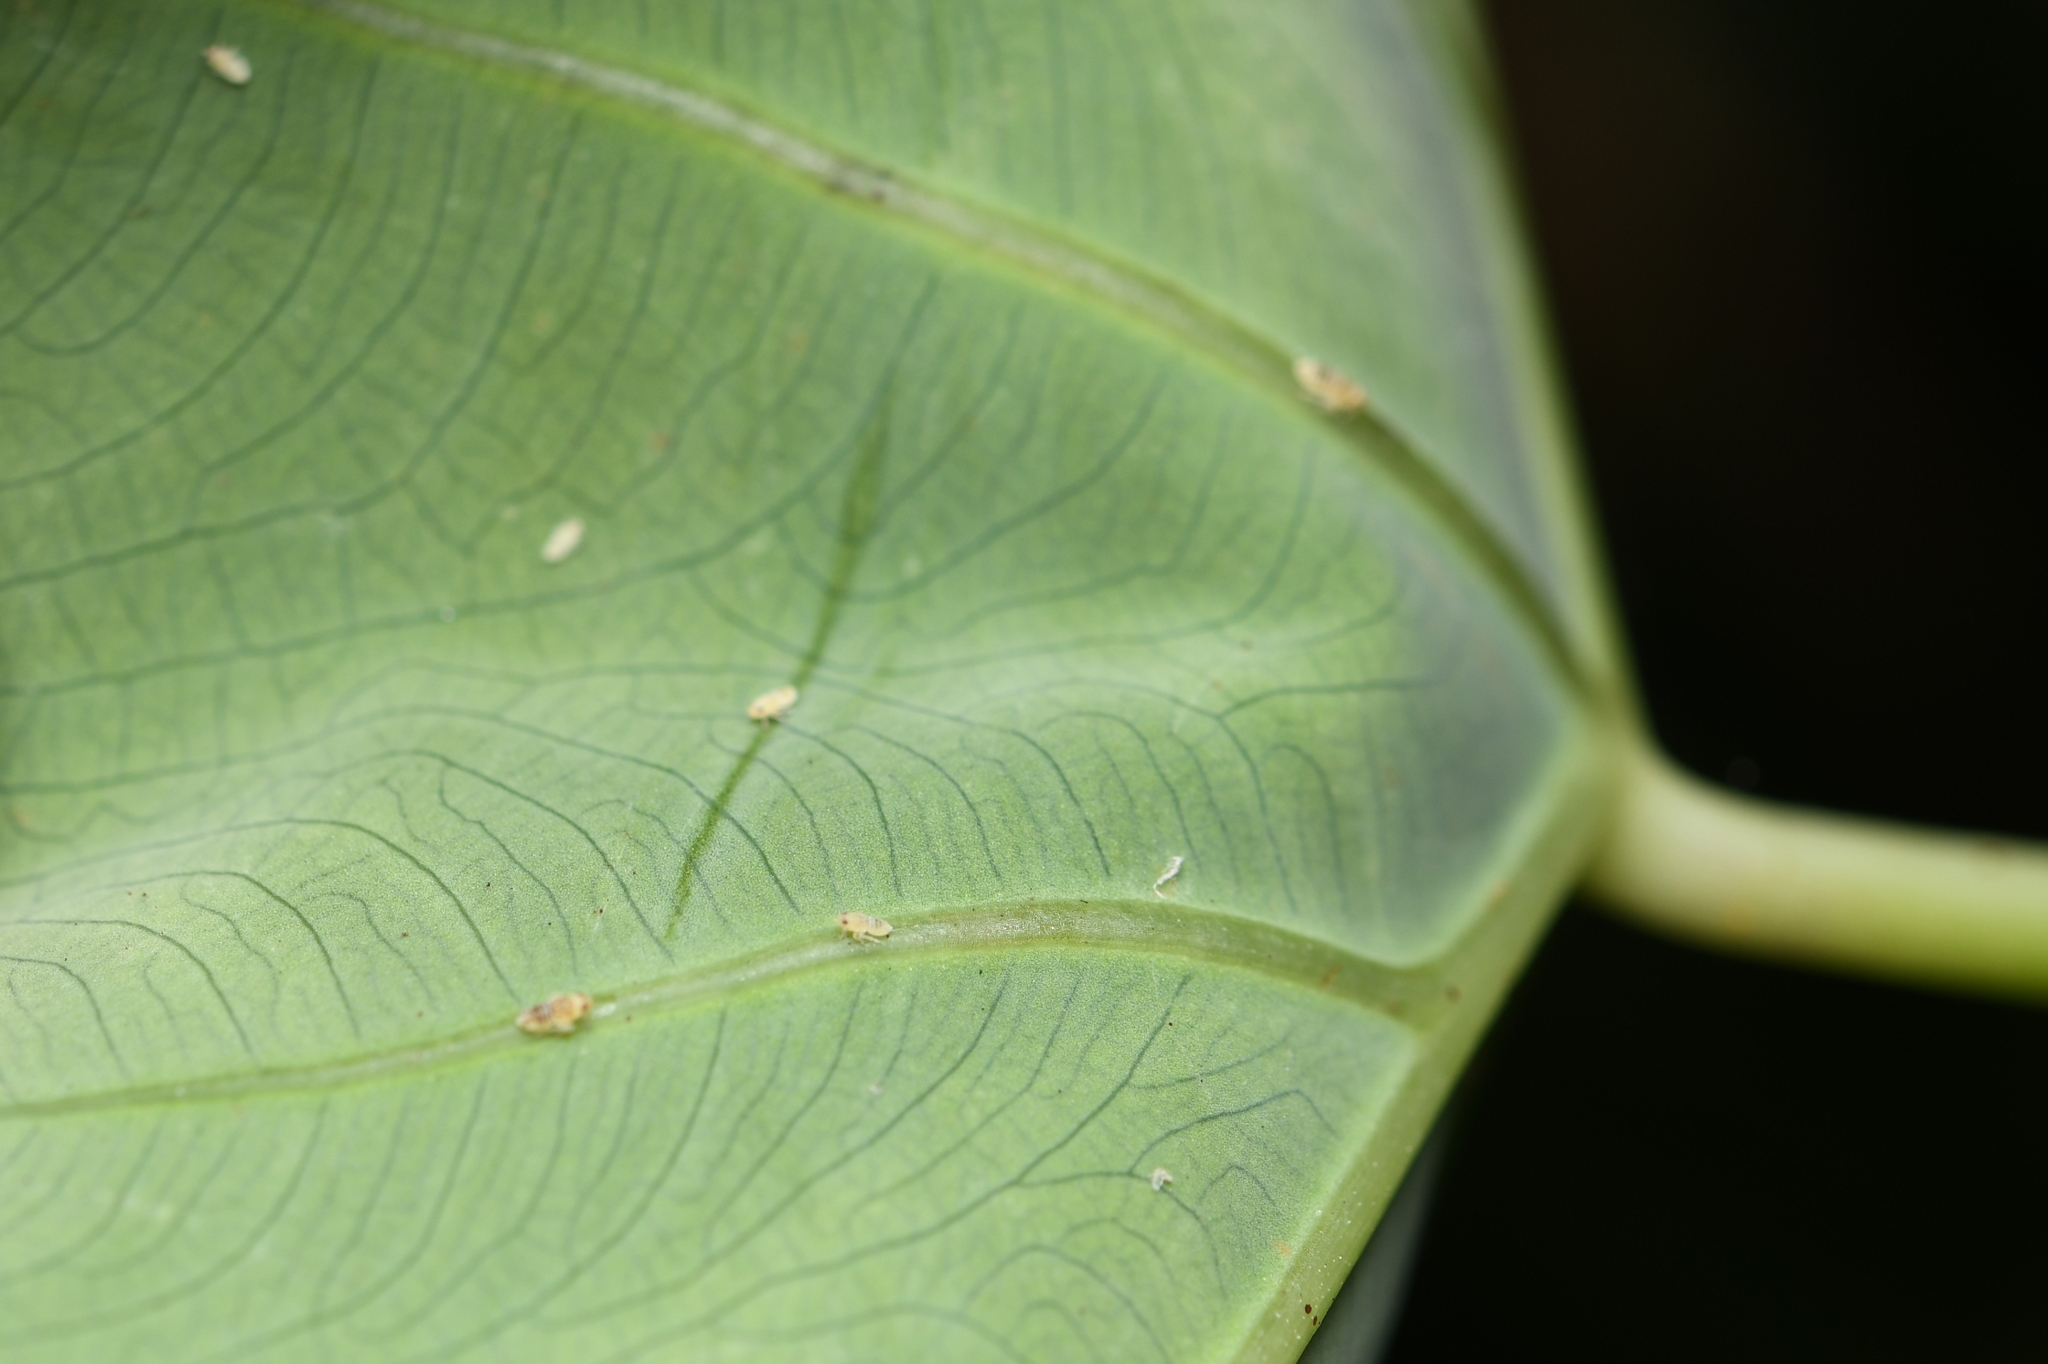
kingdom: Animalia
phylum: Arthropoda
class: Insecta
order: Hemiptera
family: Delphacidae
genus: Tarophagus
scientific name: Tarophagus colocasiae
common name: Taro planthopper
